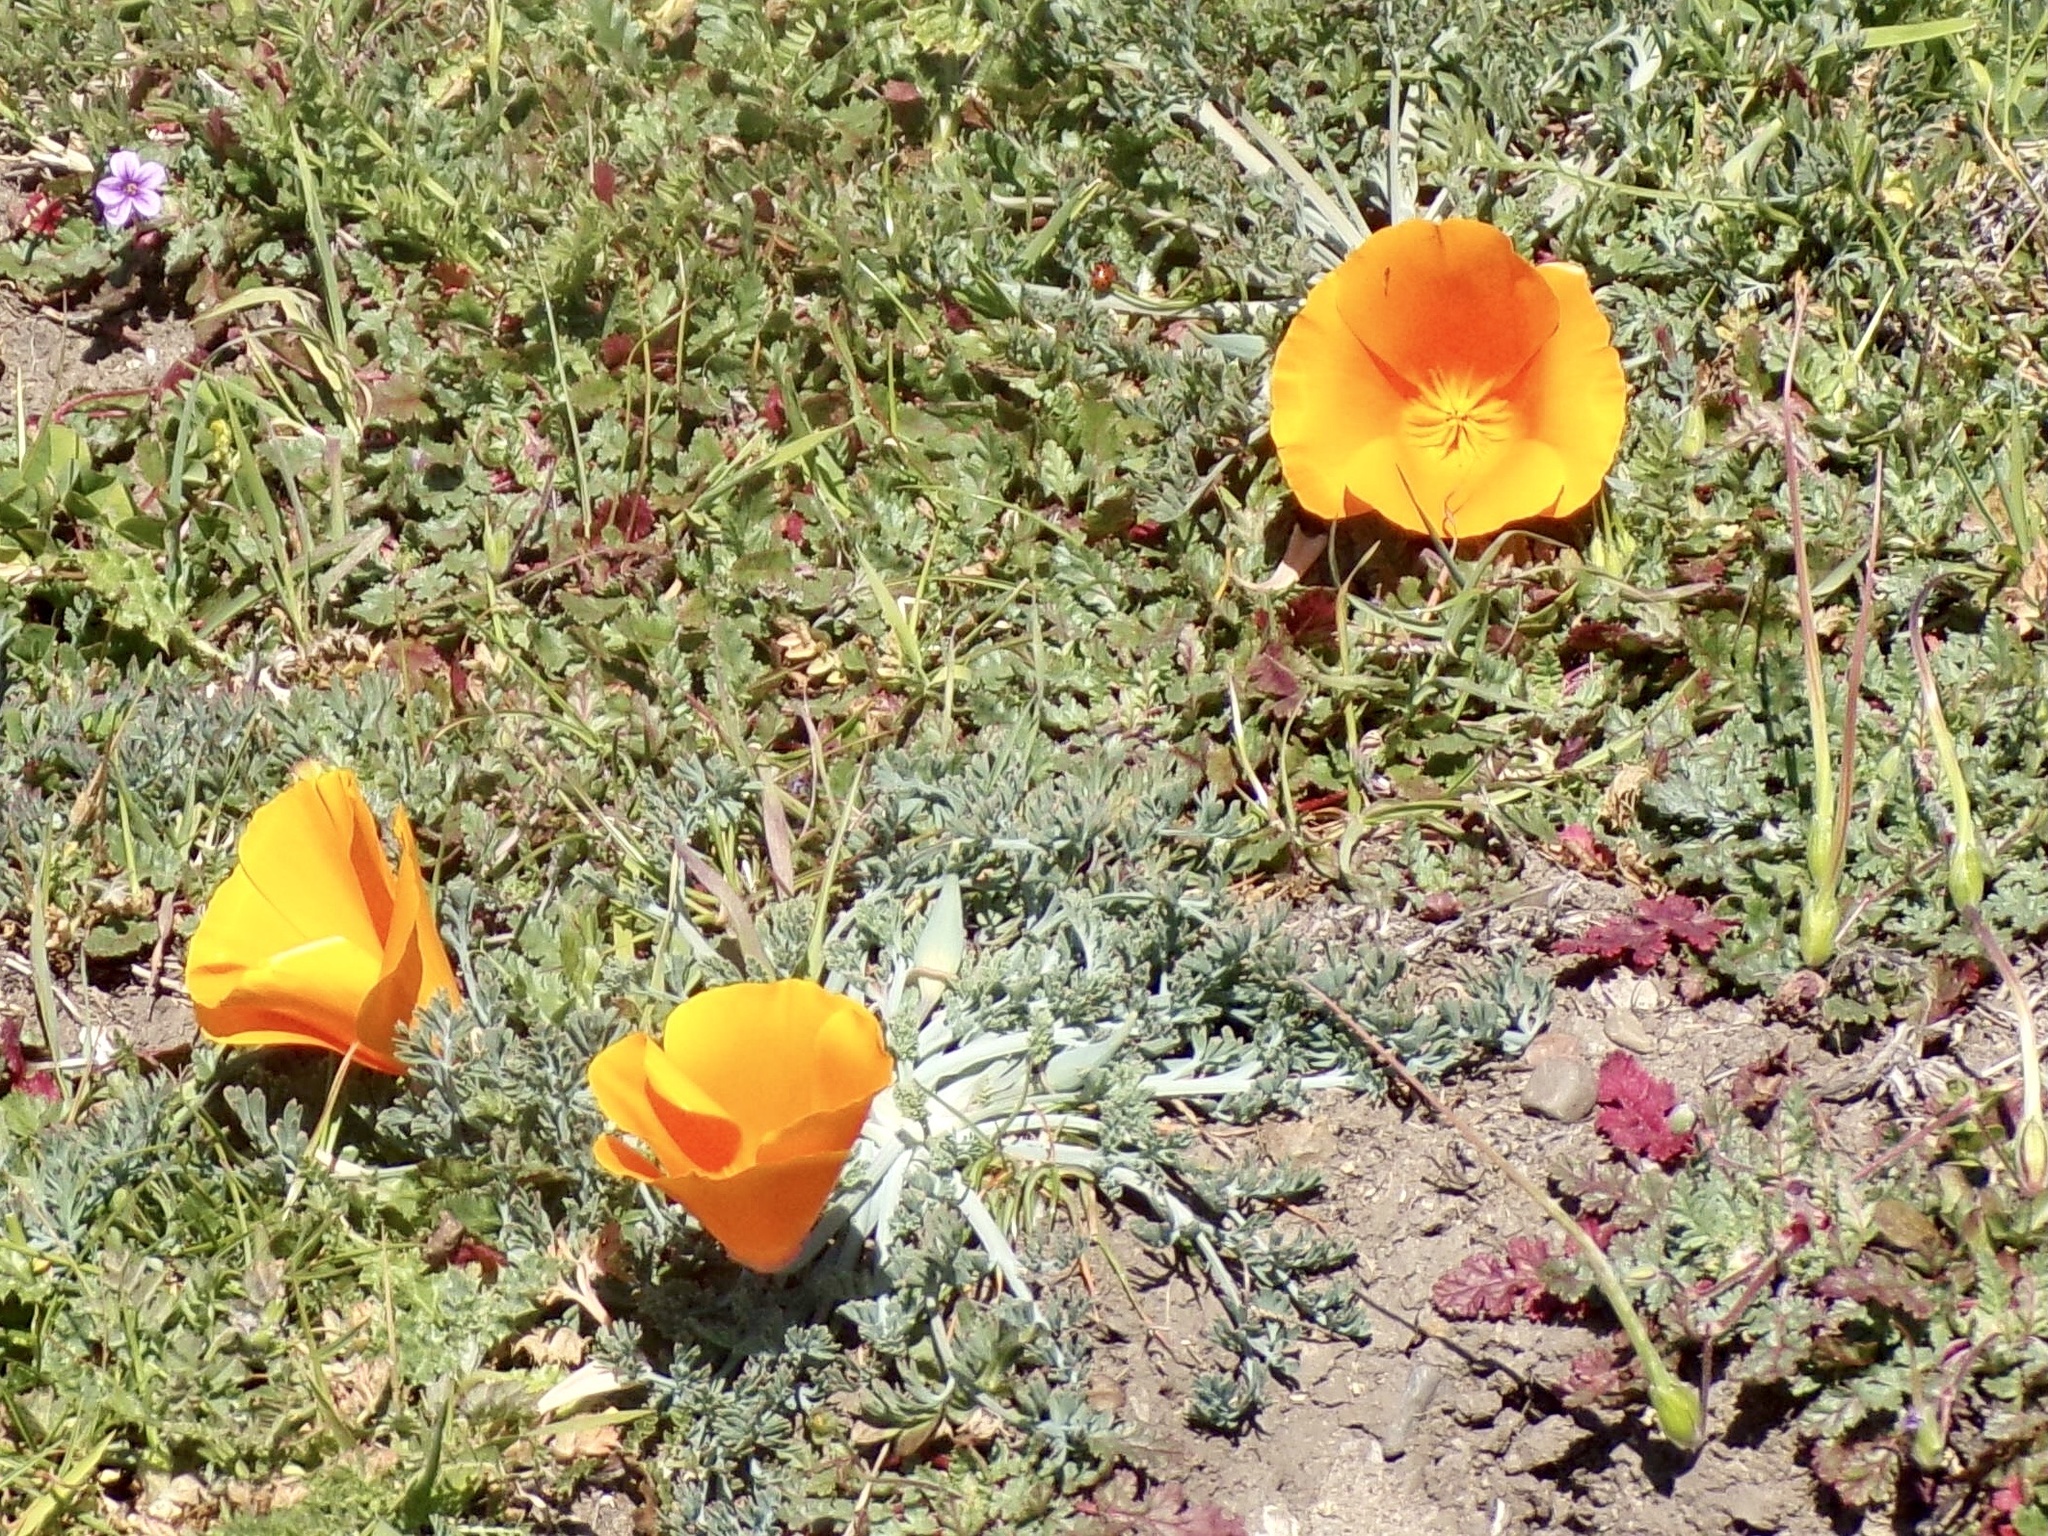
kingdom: Plantae
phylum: Tracheophyta
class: Magnoliopsida
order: Ranunculales
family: Papaveraceae
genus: Eschscholzia
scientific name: Eschscholzia californica
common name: California poppy
